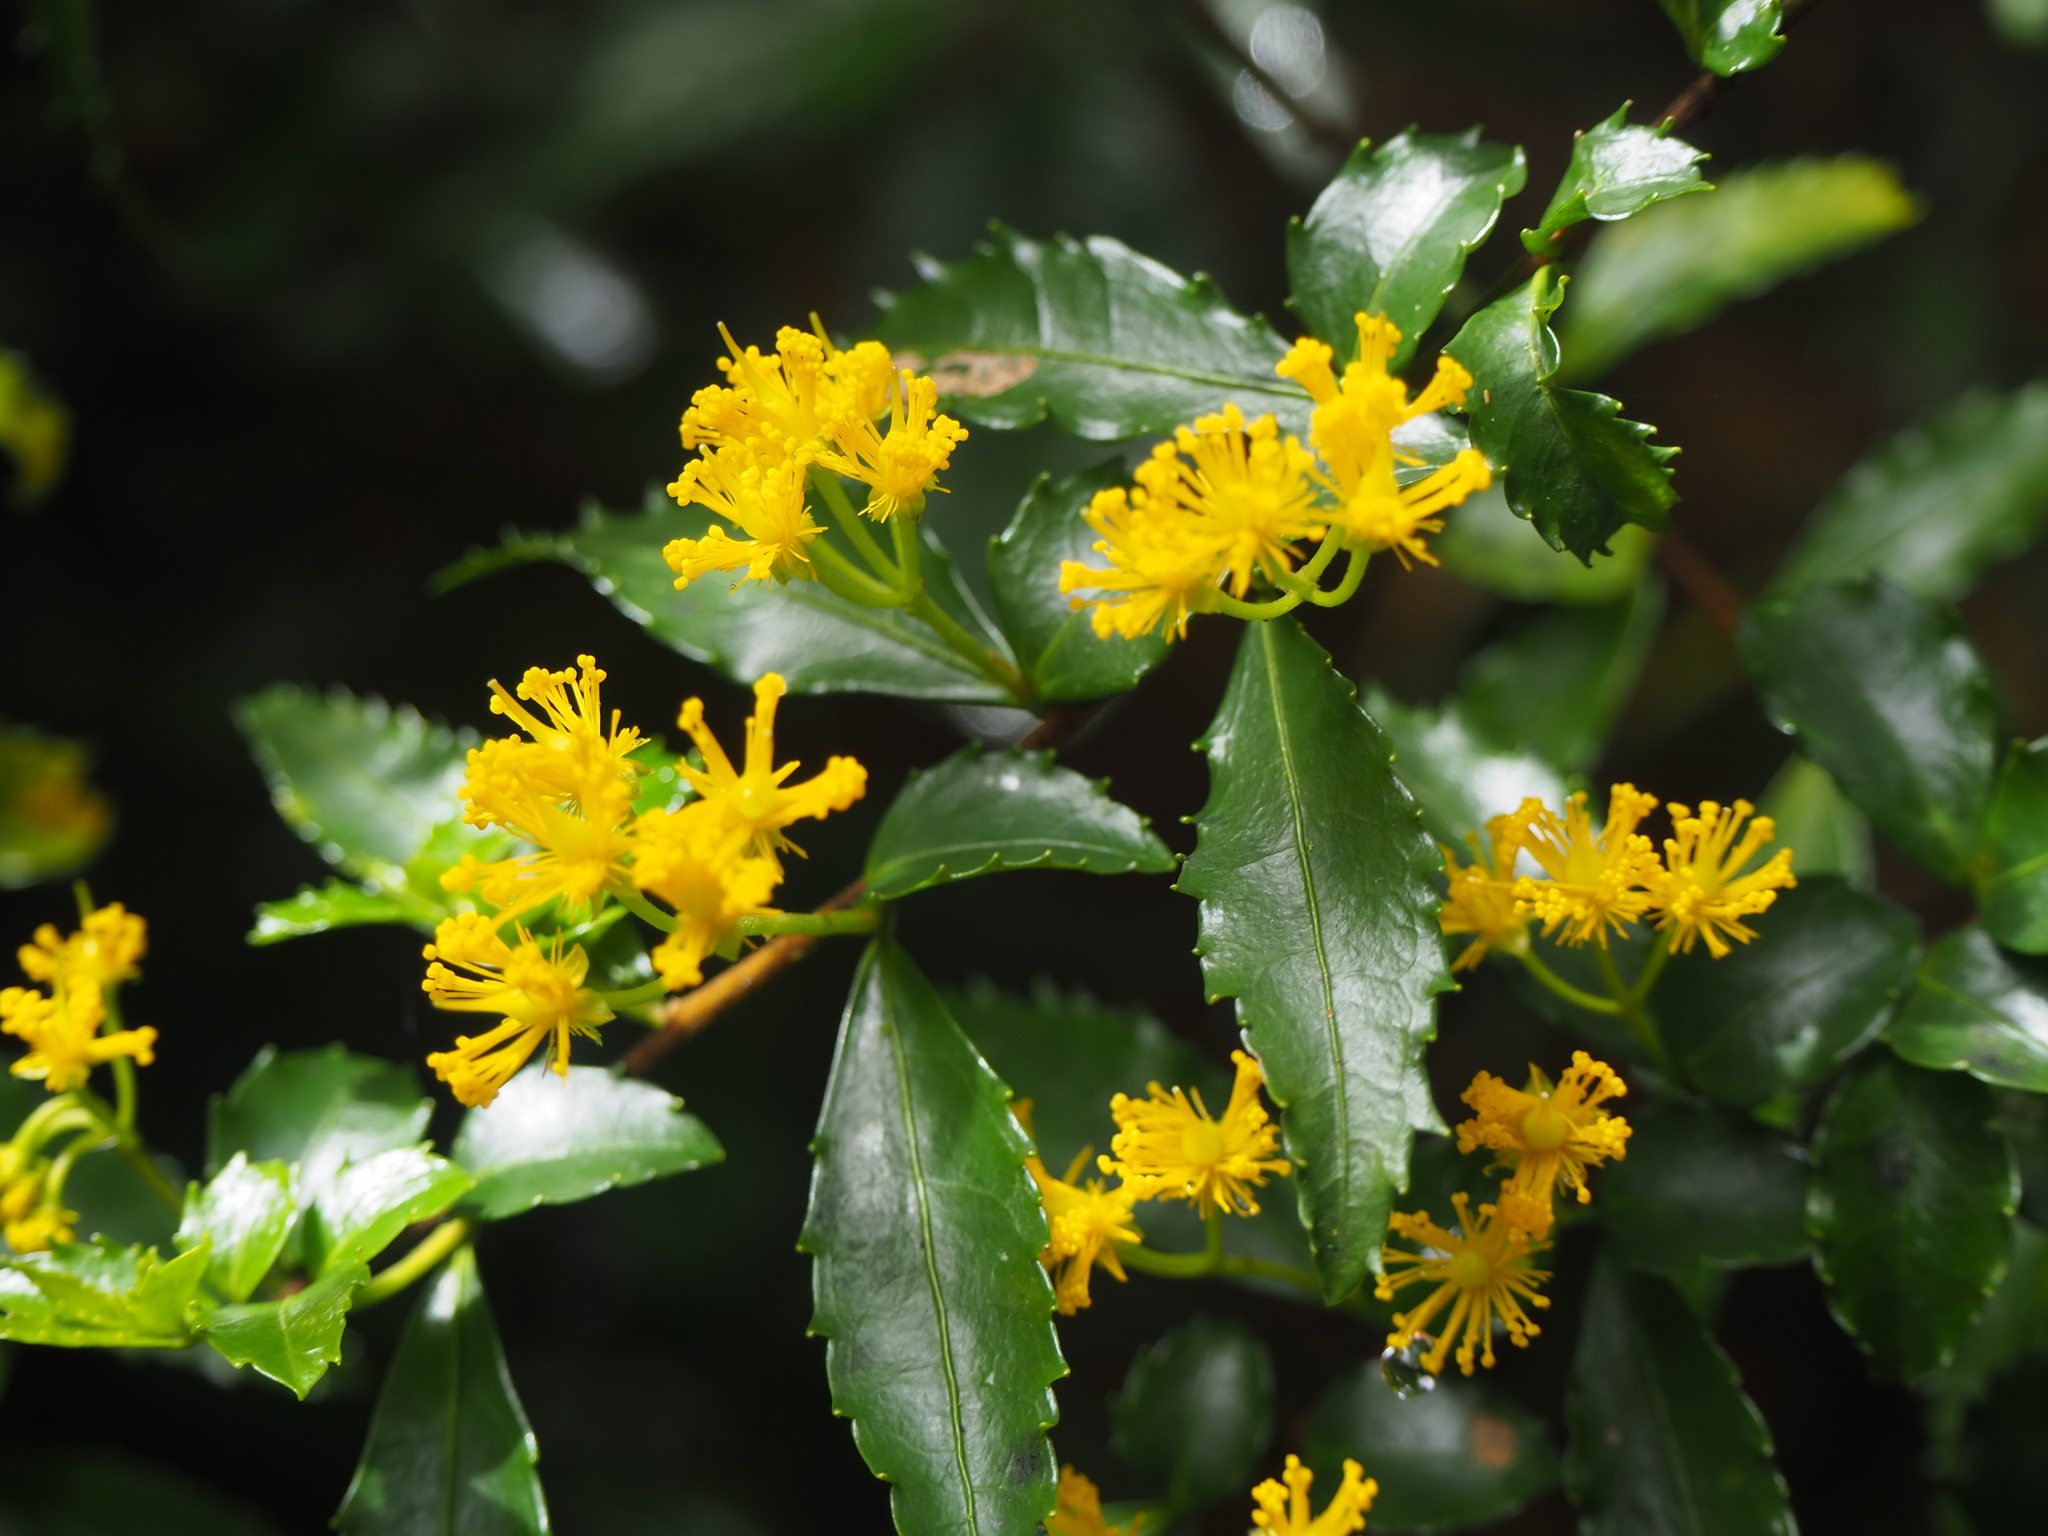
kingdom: Plantae
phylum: Tracheophyta
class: Magnoliopsida
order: Malpighiales
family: Salicaceae
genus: Azara
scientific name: Azara lanceolata
